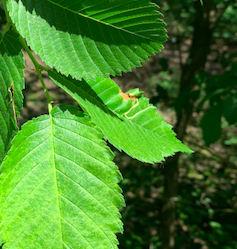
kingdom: Animalia
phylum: Arthropoda
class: Insecta
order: Diptera
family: Agromyzidae
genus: Agromyza
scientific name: Agromyza aristata
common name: Elm agromyzid leafminer
